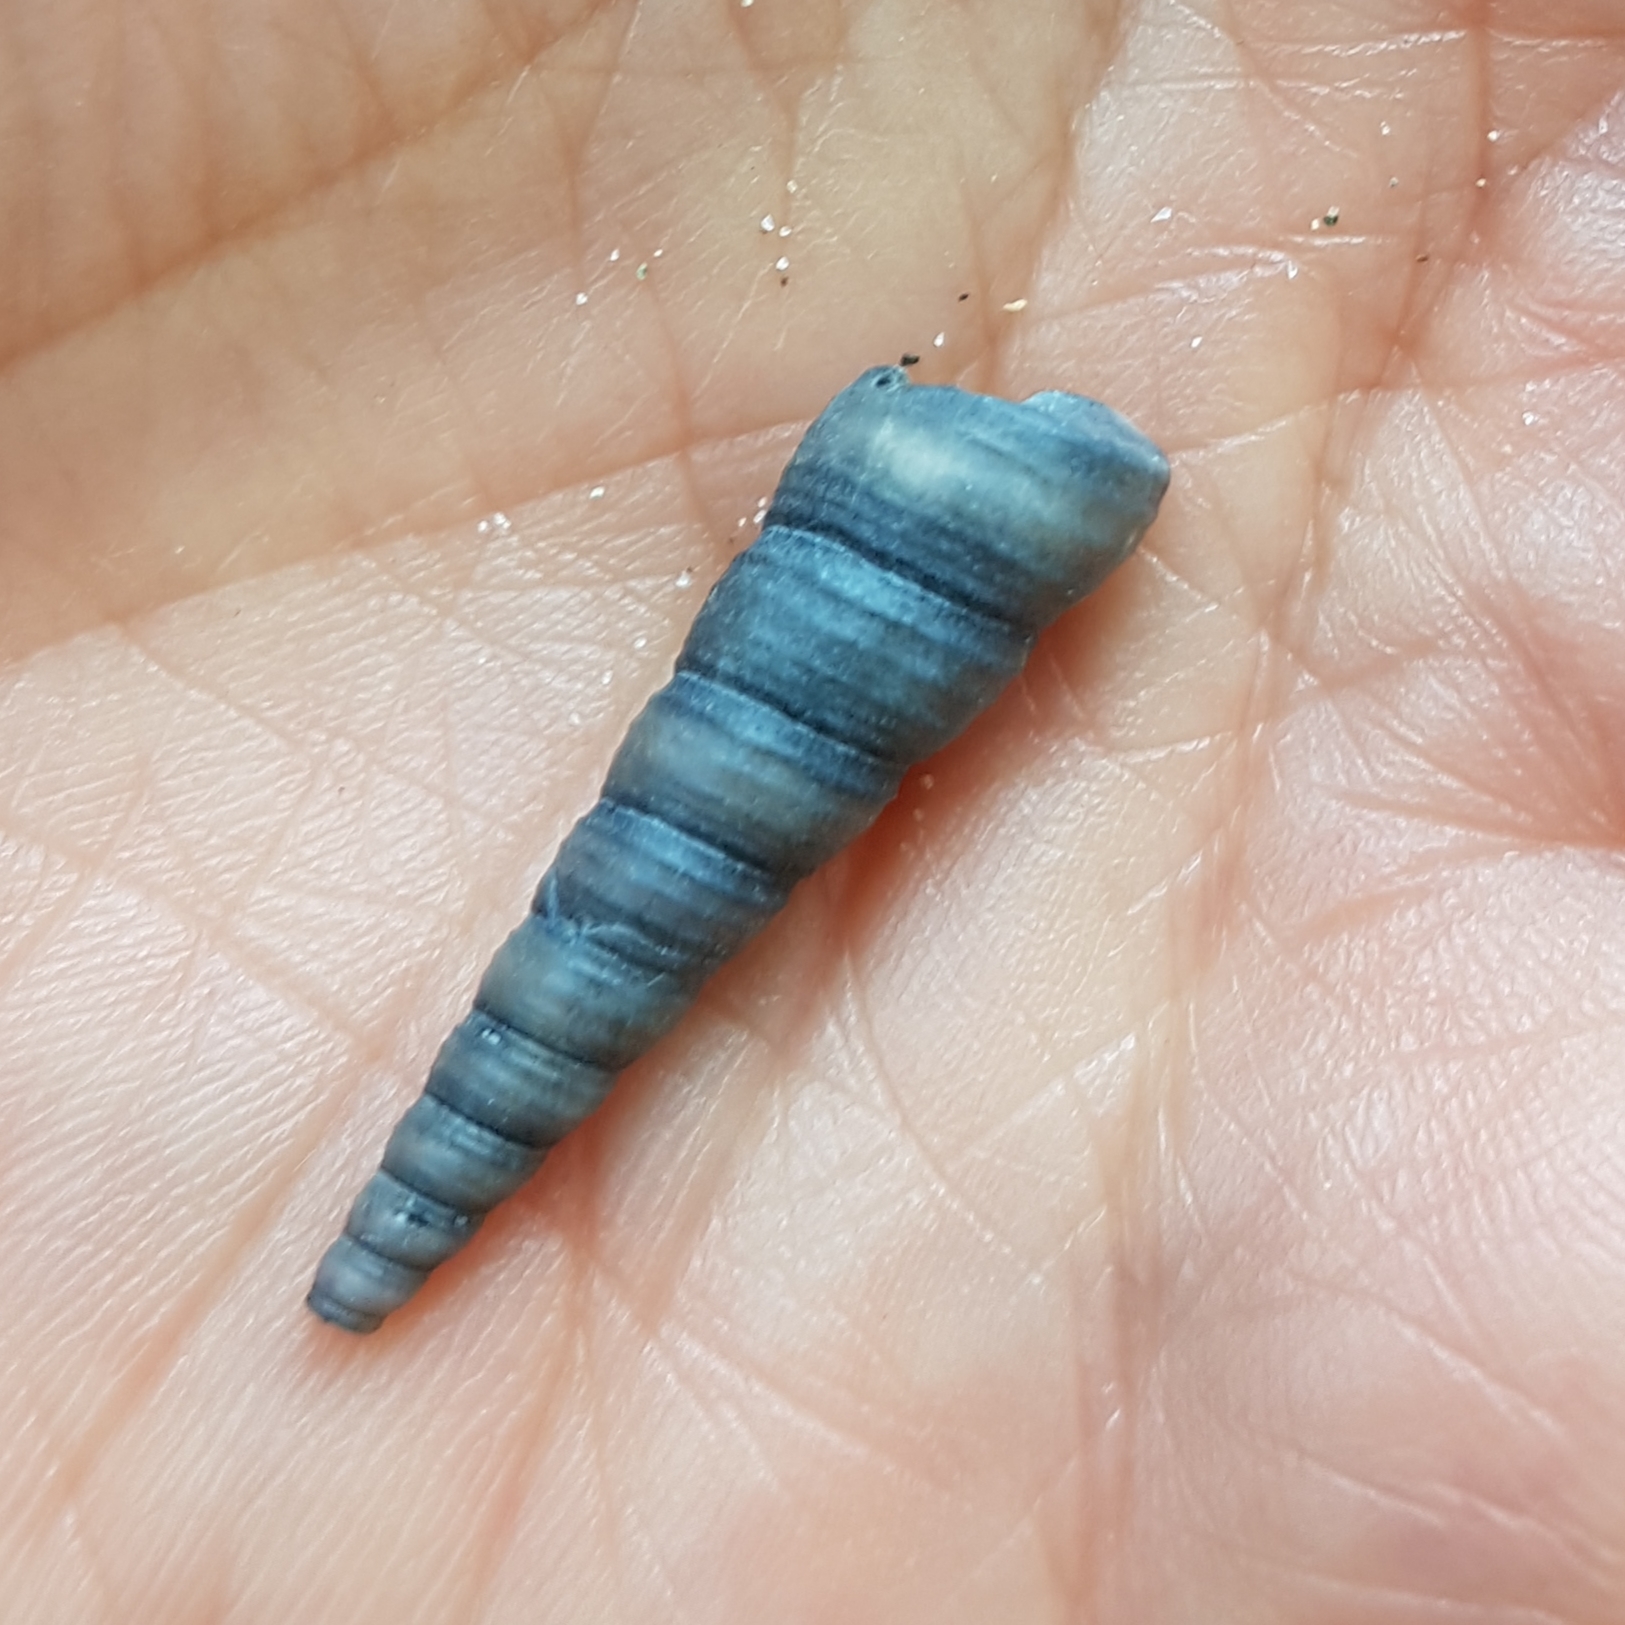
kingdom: Animalia
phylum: Mollusca
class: Gastropoda
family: Turritellidae
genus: Turritellinella
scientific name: Turritellinella tricarinata
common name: Auger shell
